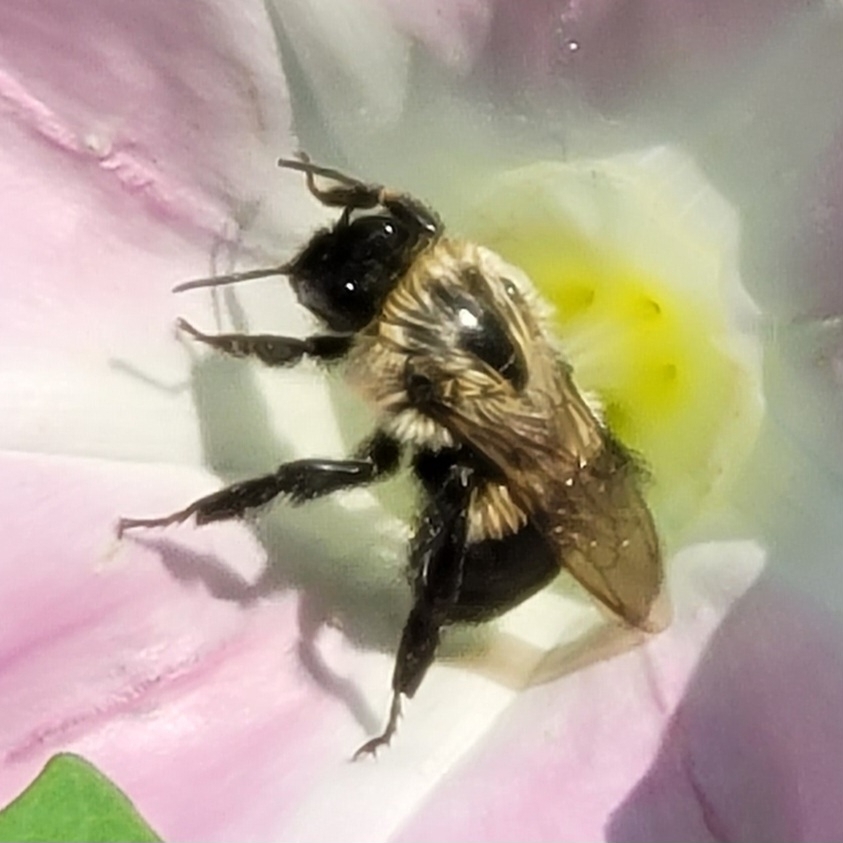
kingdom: Animalia
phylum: Arthropoda
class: Insecta
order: Hymenoptera
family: Apidae
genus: Bombus
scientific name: Bombus impatiens
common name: Common eastern bumble bee
